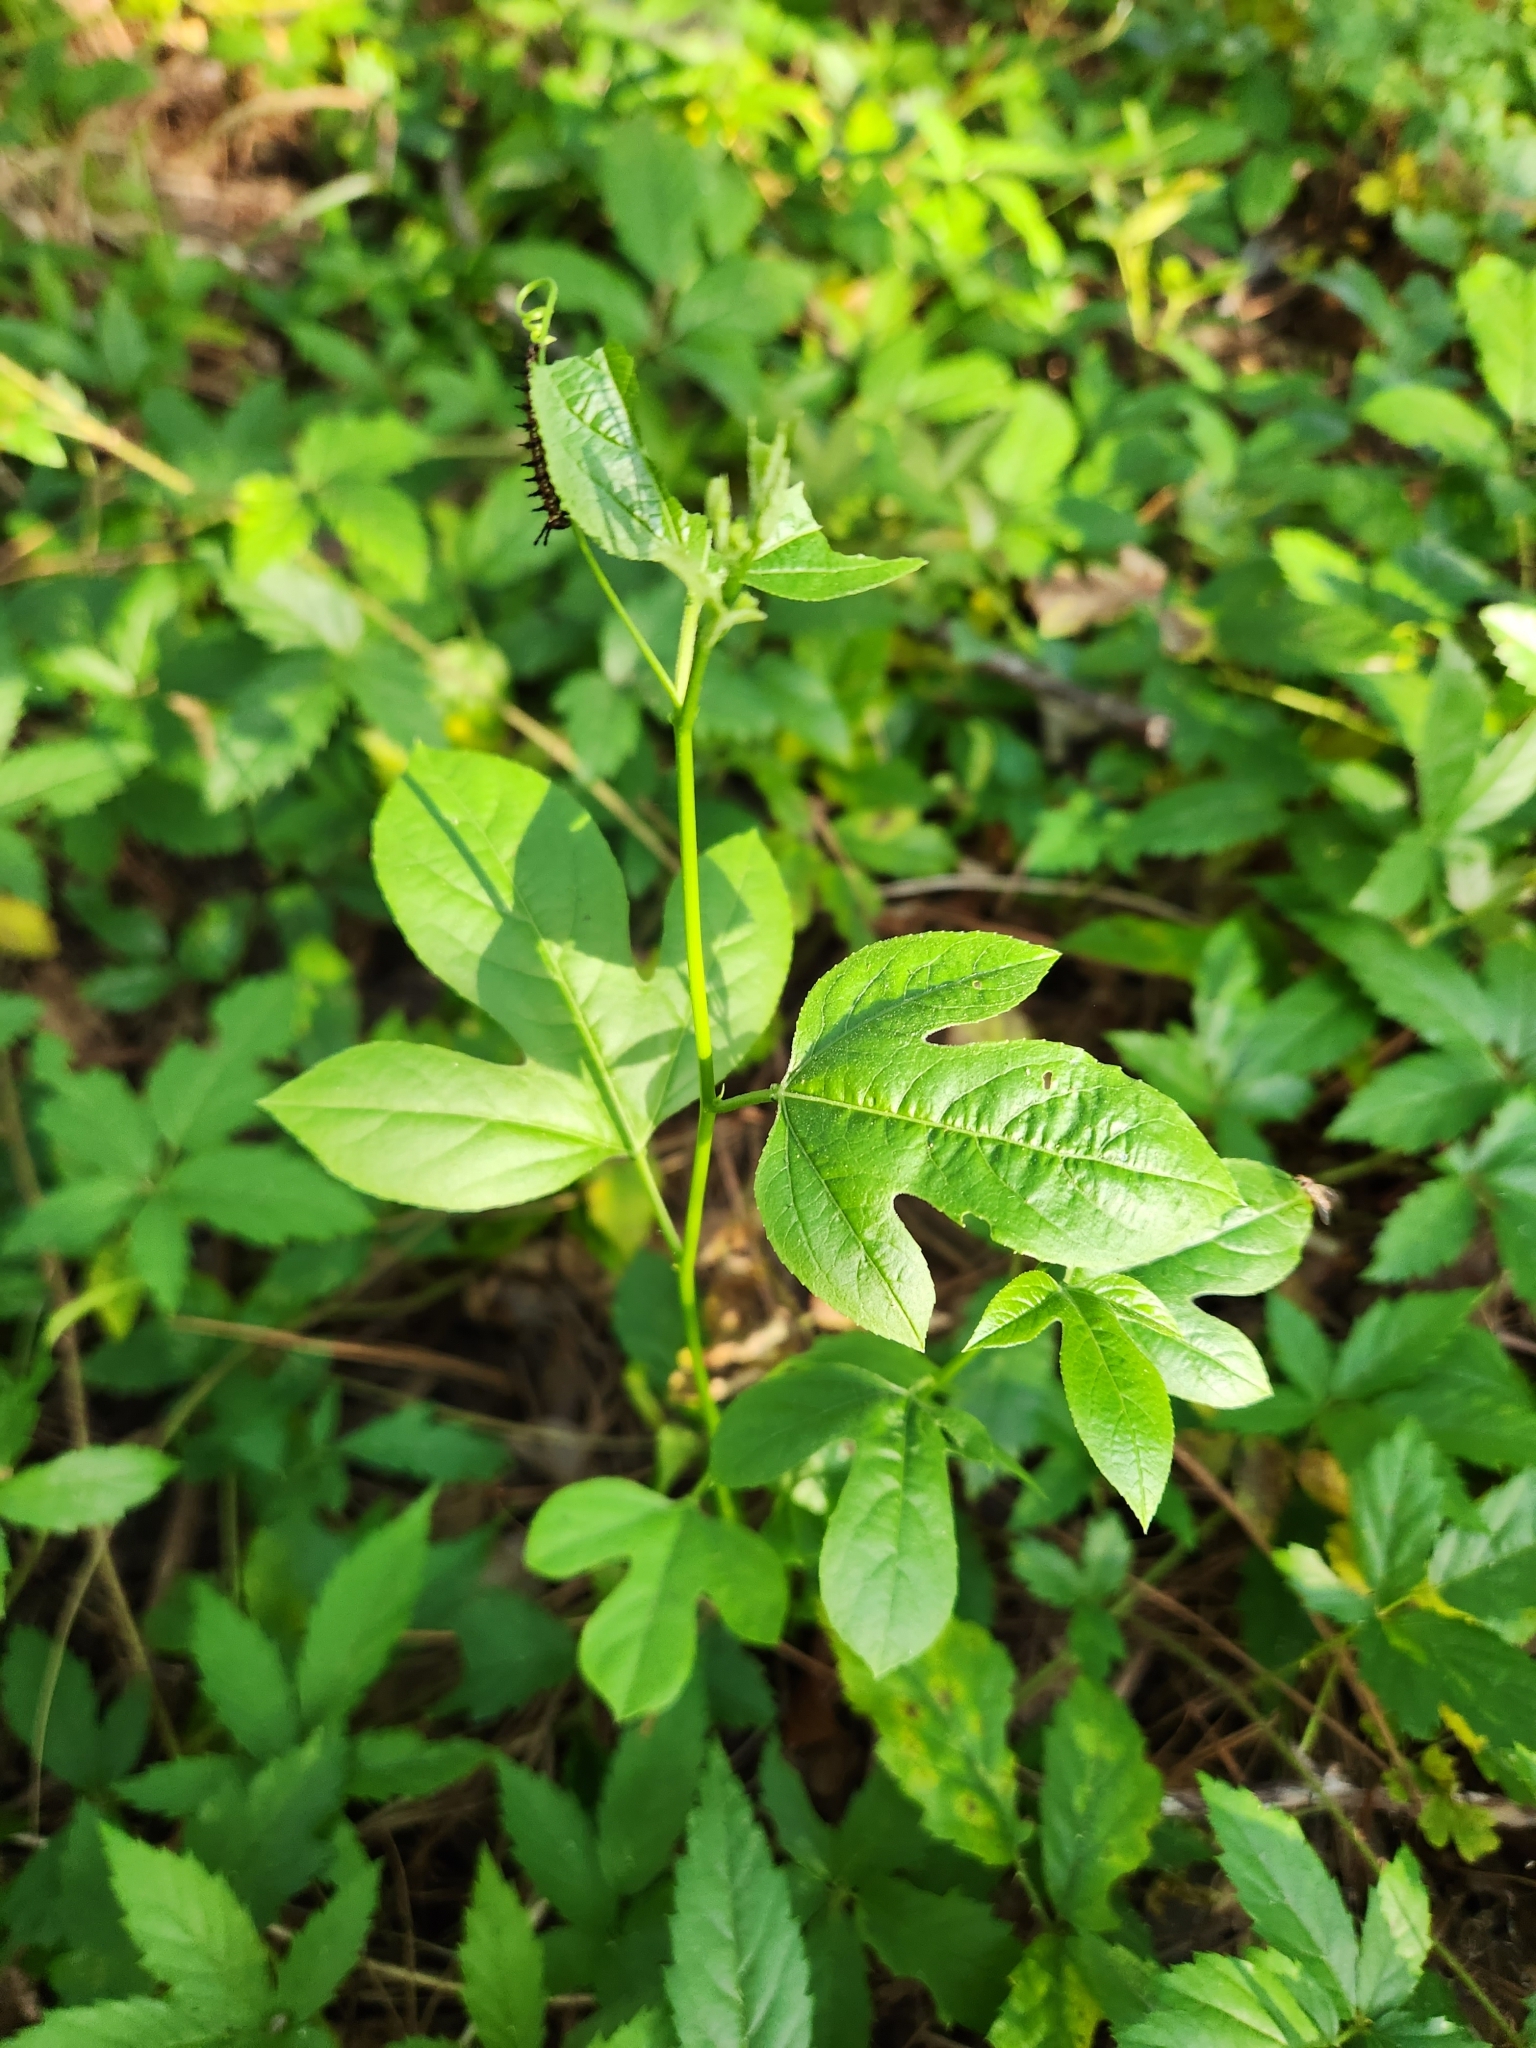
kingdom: Plantae
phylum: Tracheophyta
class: Magnoliopsida
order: Malpighiales
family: Passifloraceae
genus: Passiflora
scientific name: Passiflora incarnata
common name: Apricot-vine
